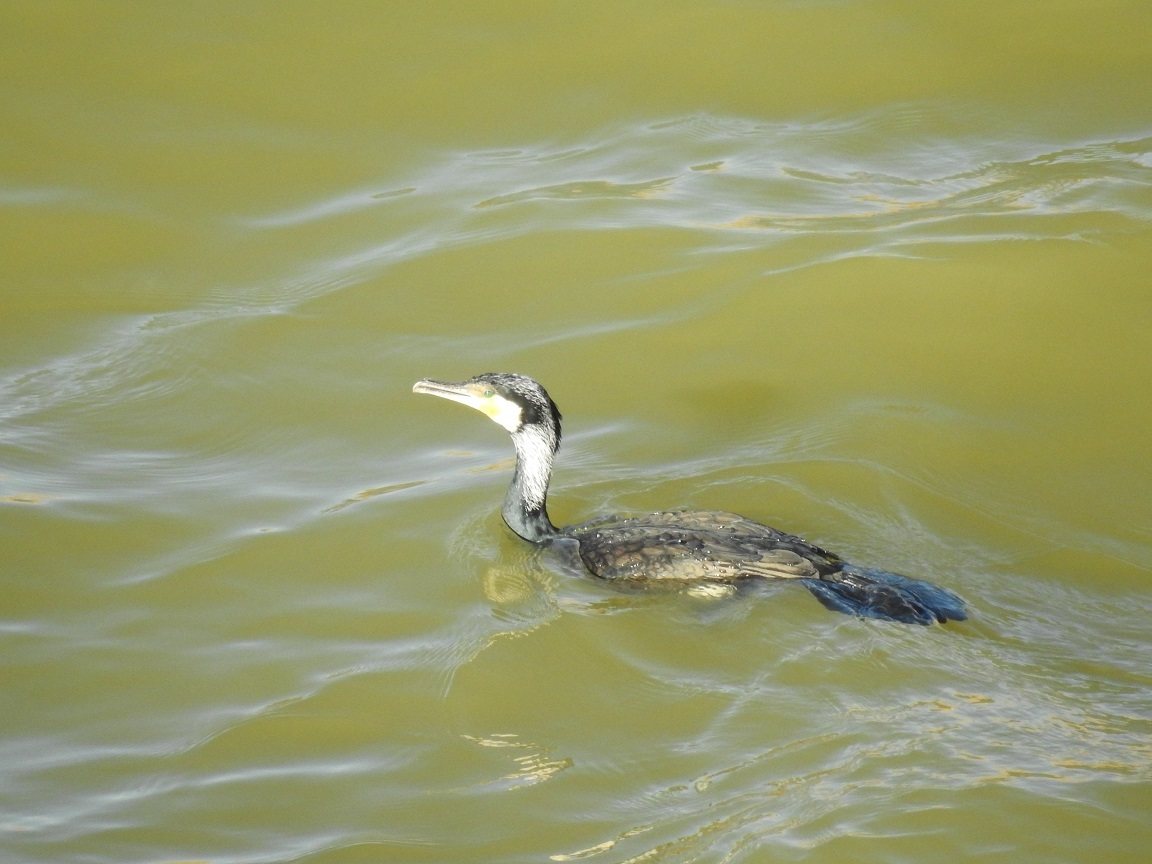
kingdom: Animalia
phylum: Chordata
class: Aves
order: Suliformes
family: Phalacrocoracidae
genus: Phalacrocorax
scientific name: Phalacrocorax carbo
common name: Great cormorant
